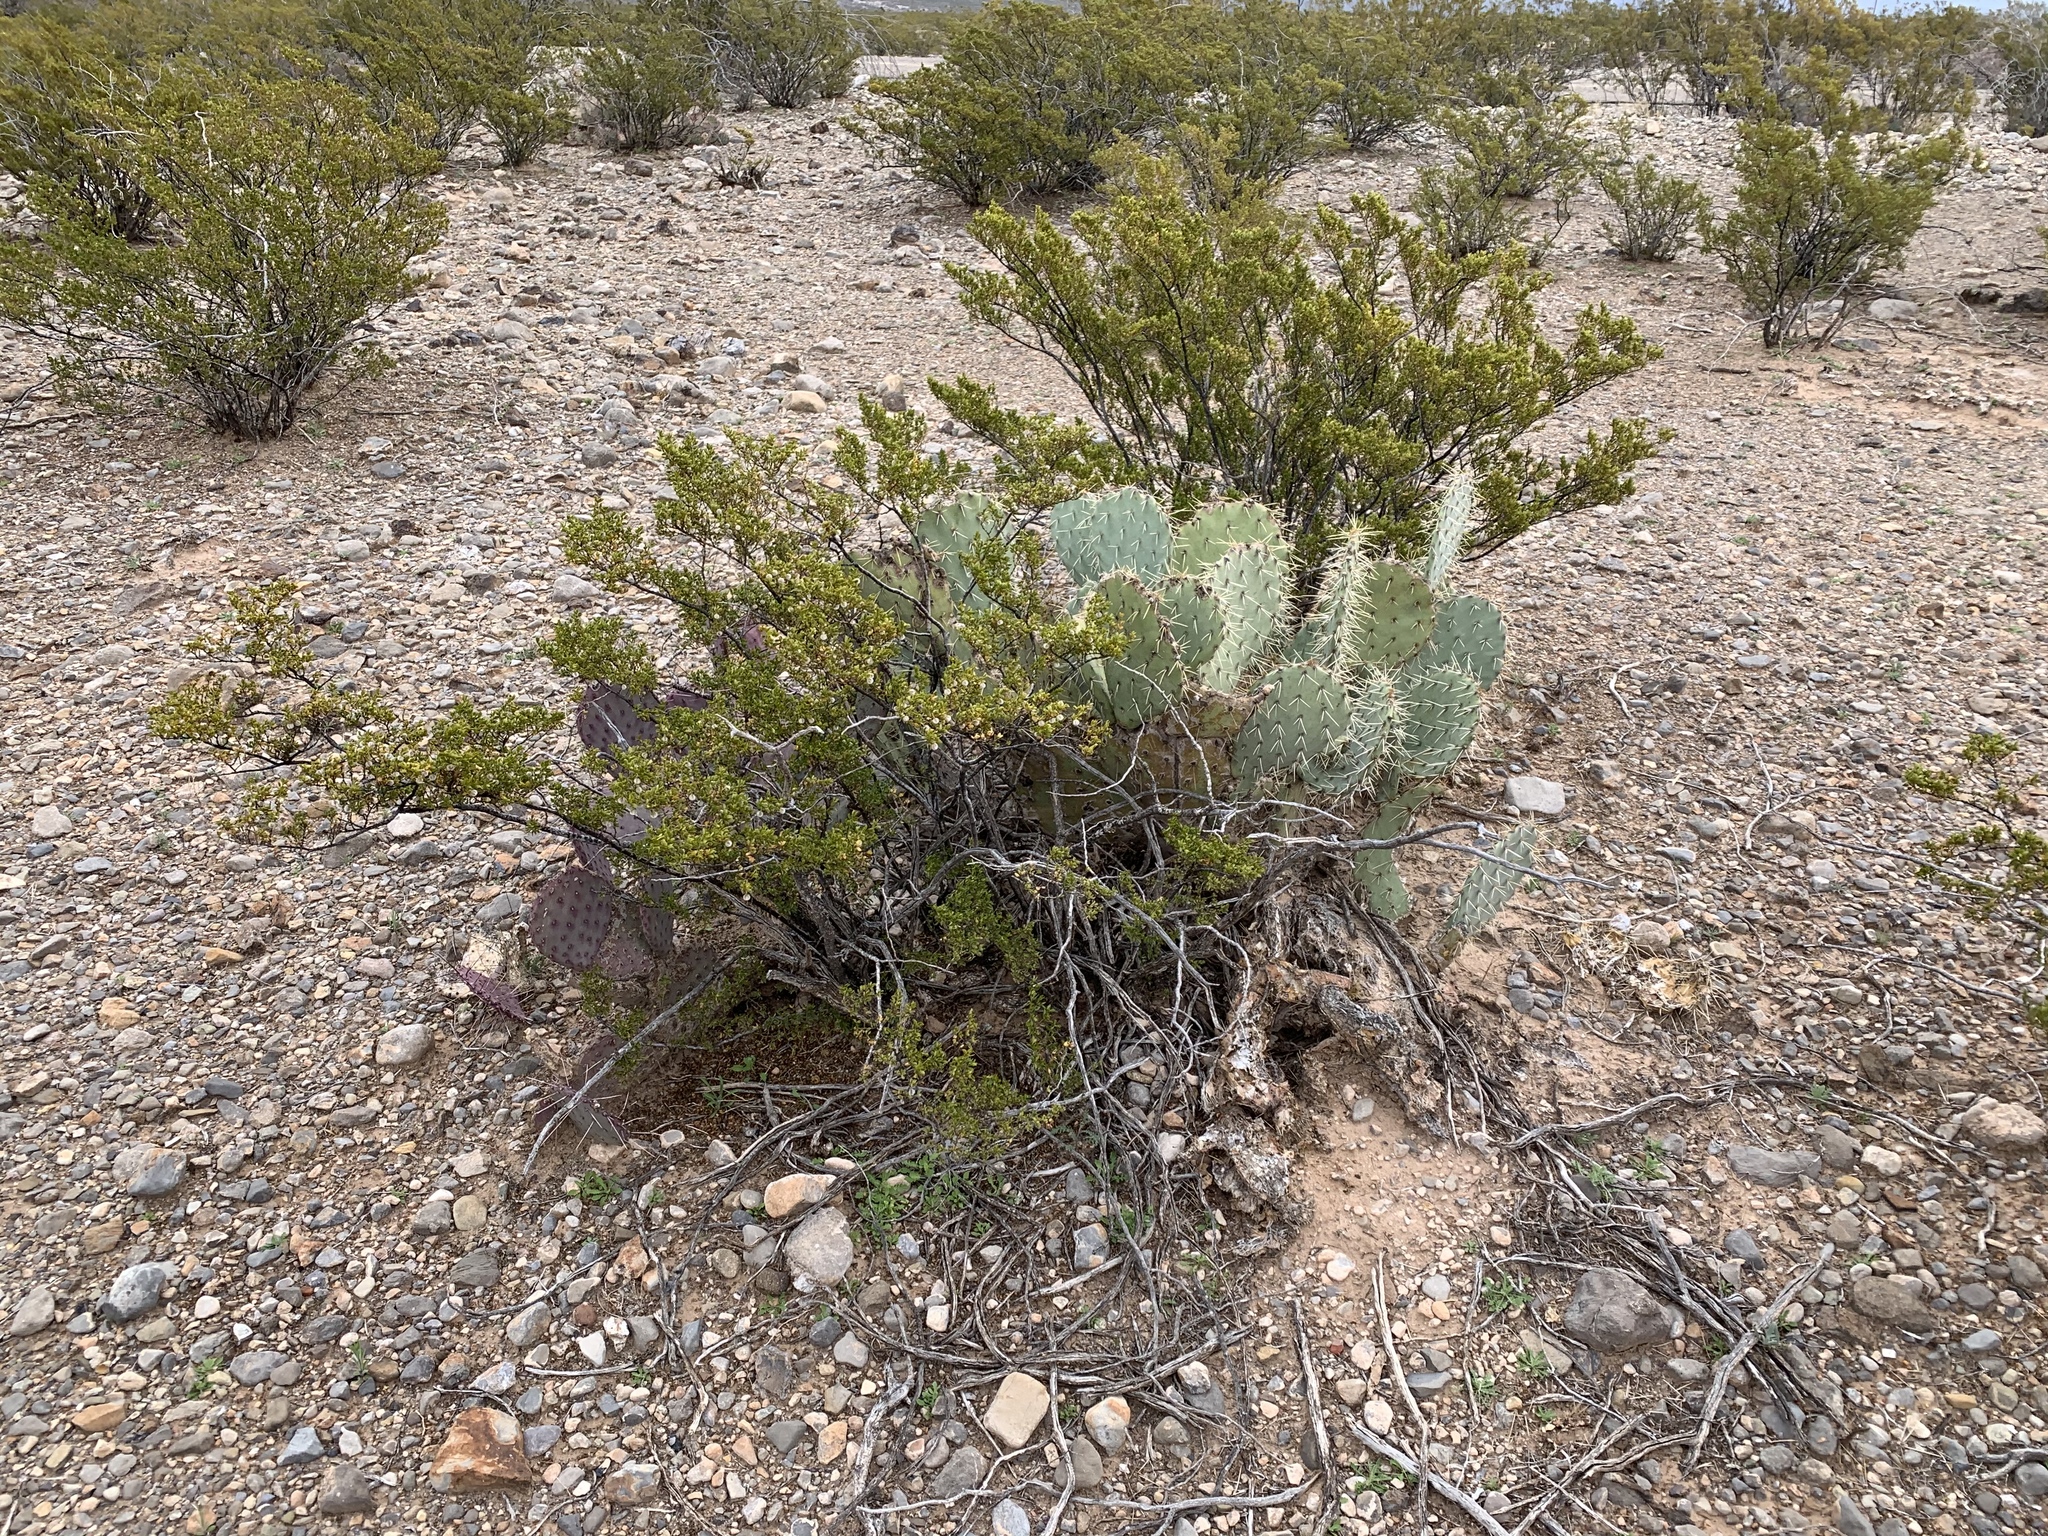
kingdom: Plantae
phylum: Tracheophyta
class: Magnoliopsida
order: Zygophyllales
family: Zygophyllaceae
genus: Larrea
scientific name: Larrea tridentata
